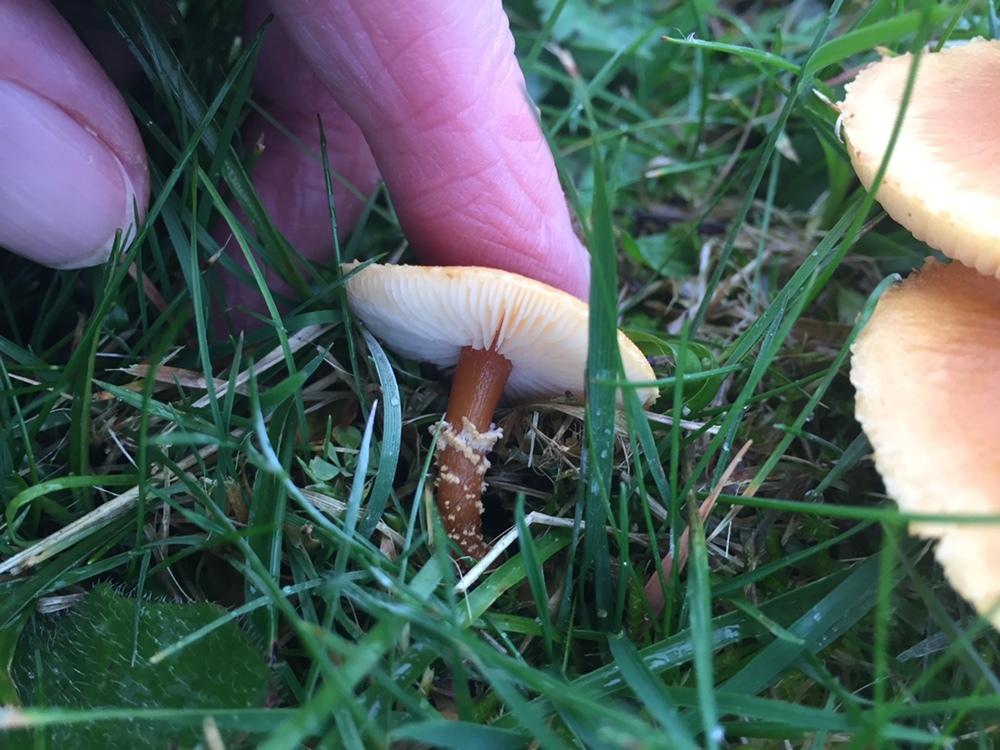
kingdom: Fungi
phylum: Basidiomycota
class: Agaricomycetes
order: Agaricales
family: Tricholomataceae
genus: Cystoderma
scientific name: Cystoderma amianthinum
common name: Earthy powdercap
